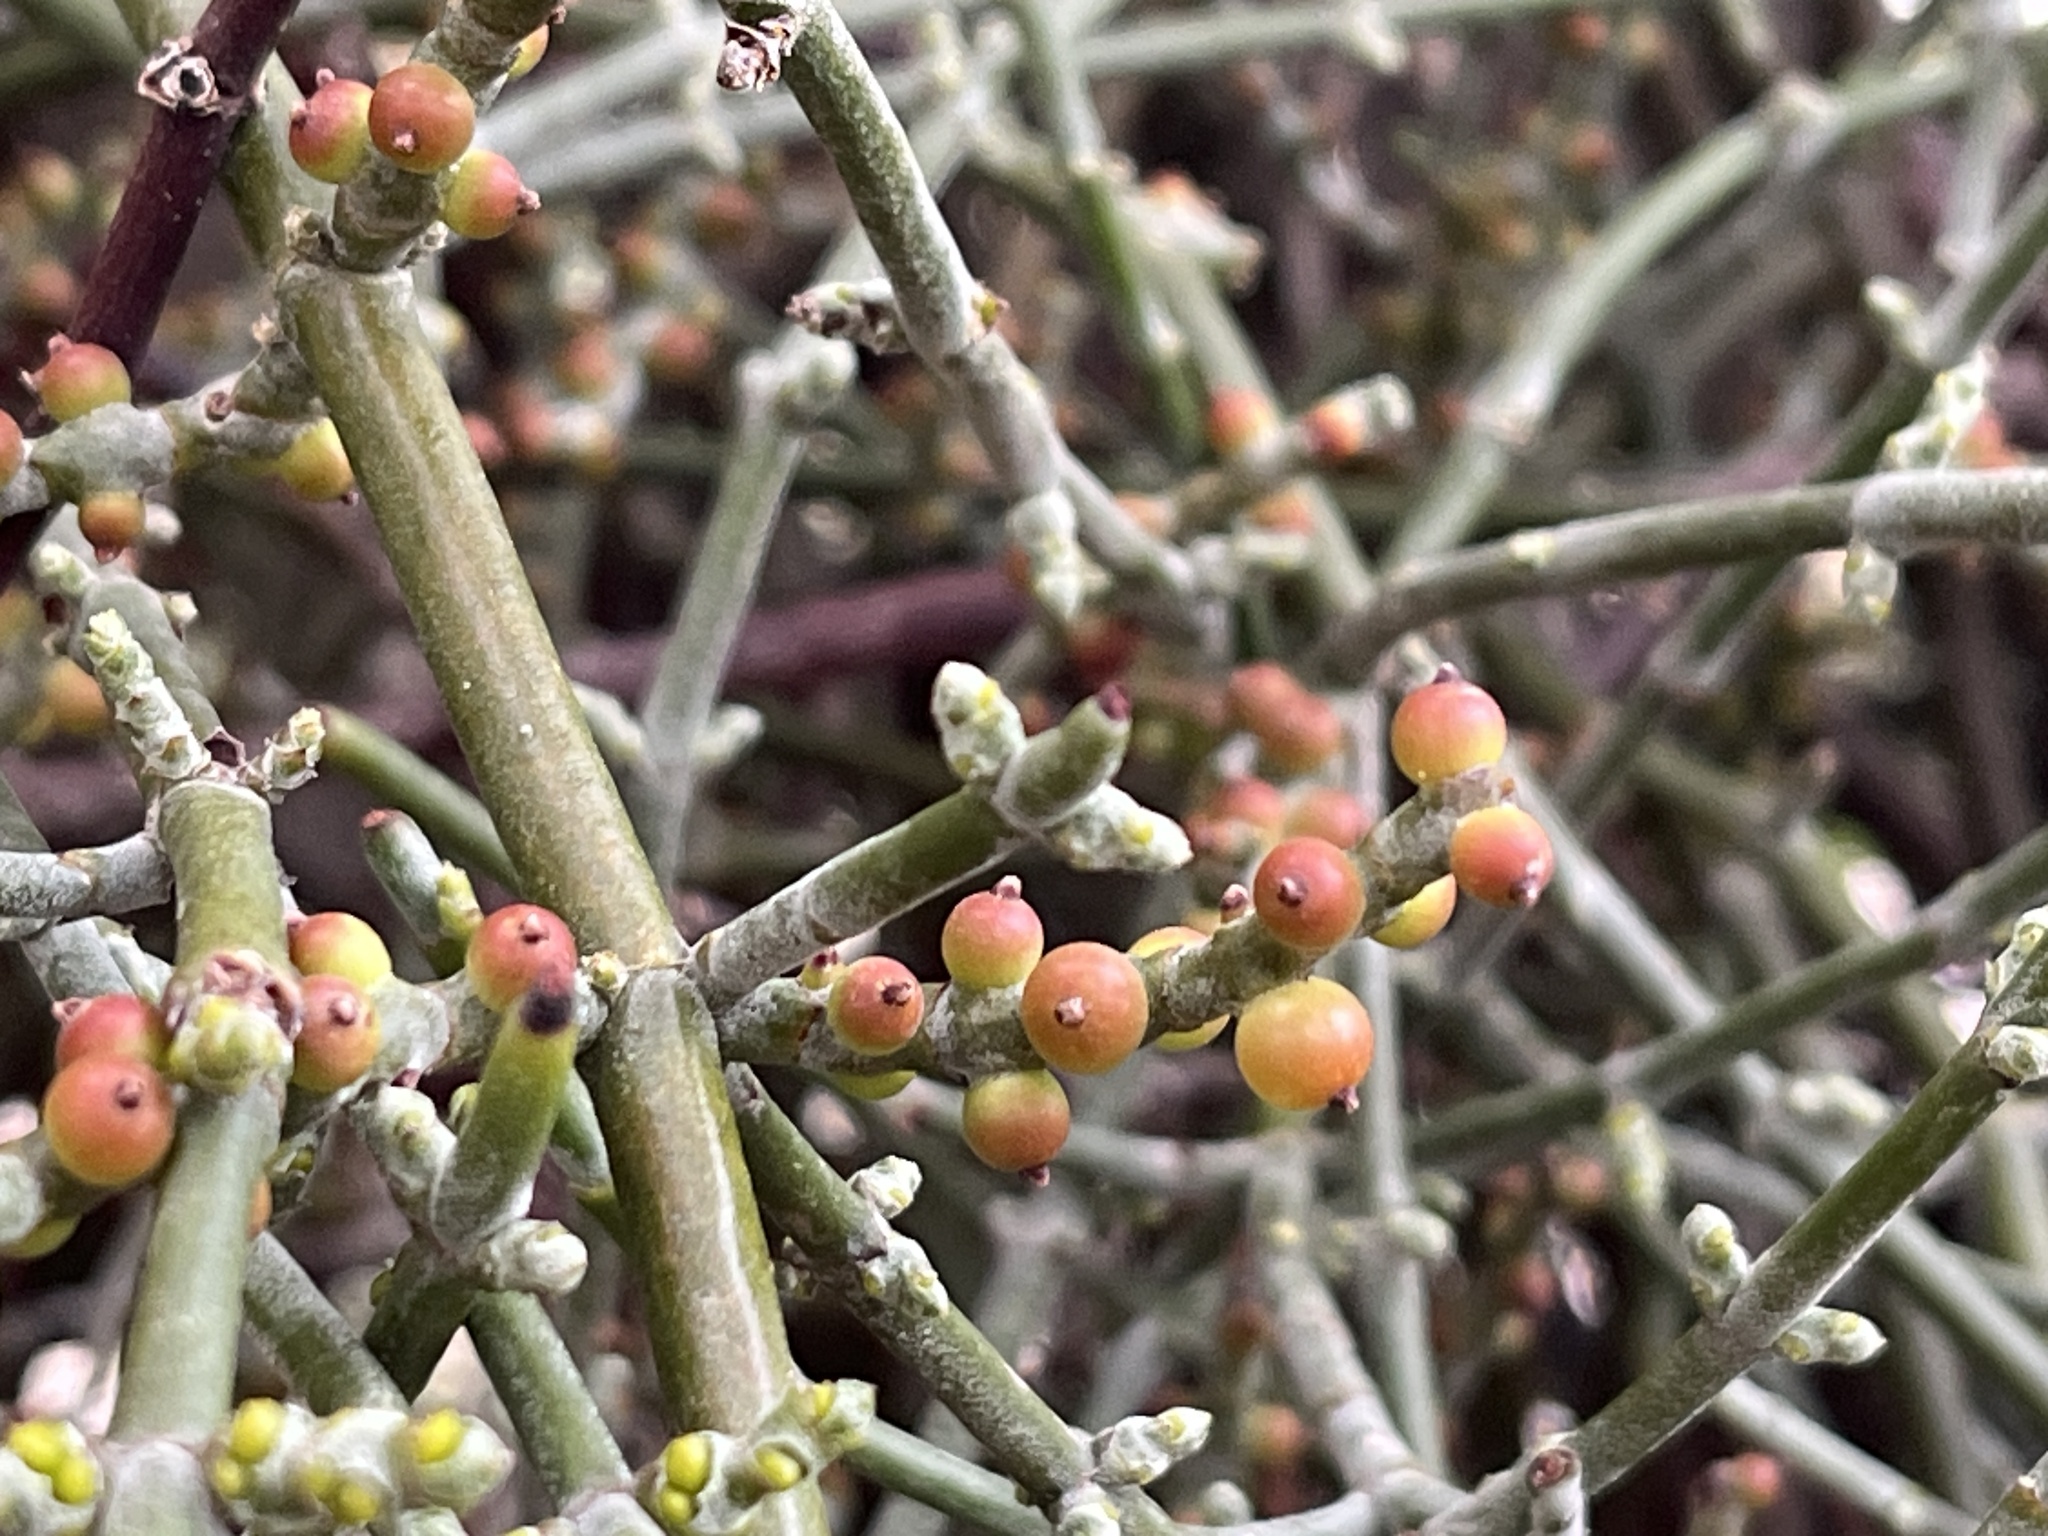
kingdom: Plantae
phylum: Tracheophyta
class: Magnoliopsida
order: Santalales
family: Viscaceae
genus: Phoradendron
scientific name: Phoradendron californicum
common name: Acacia mistletoe
